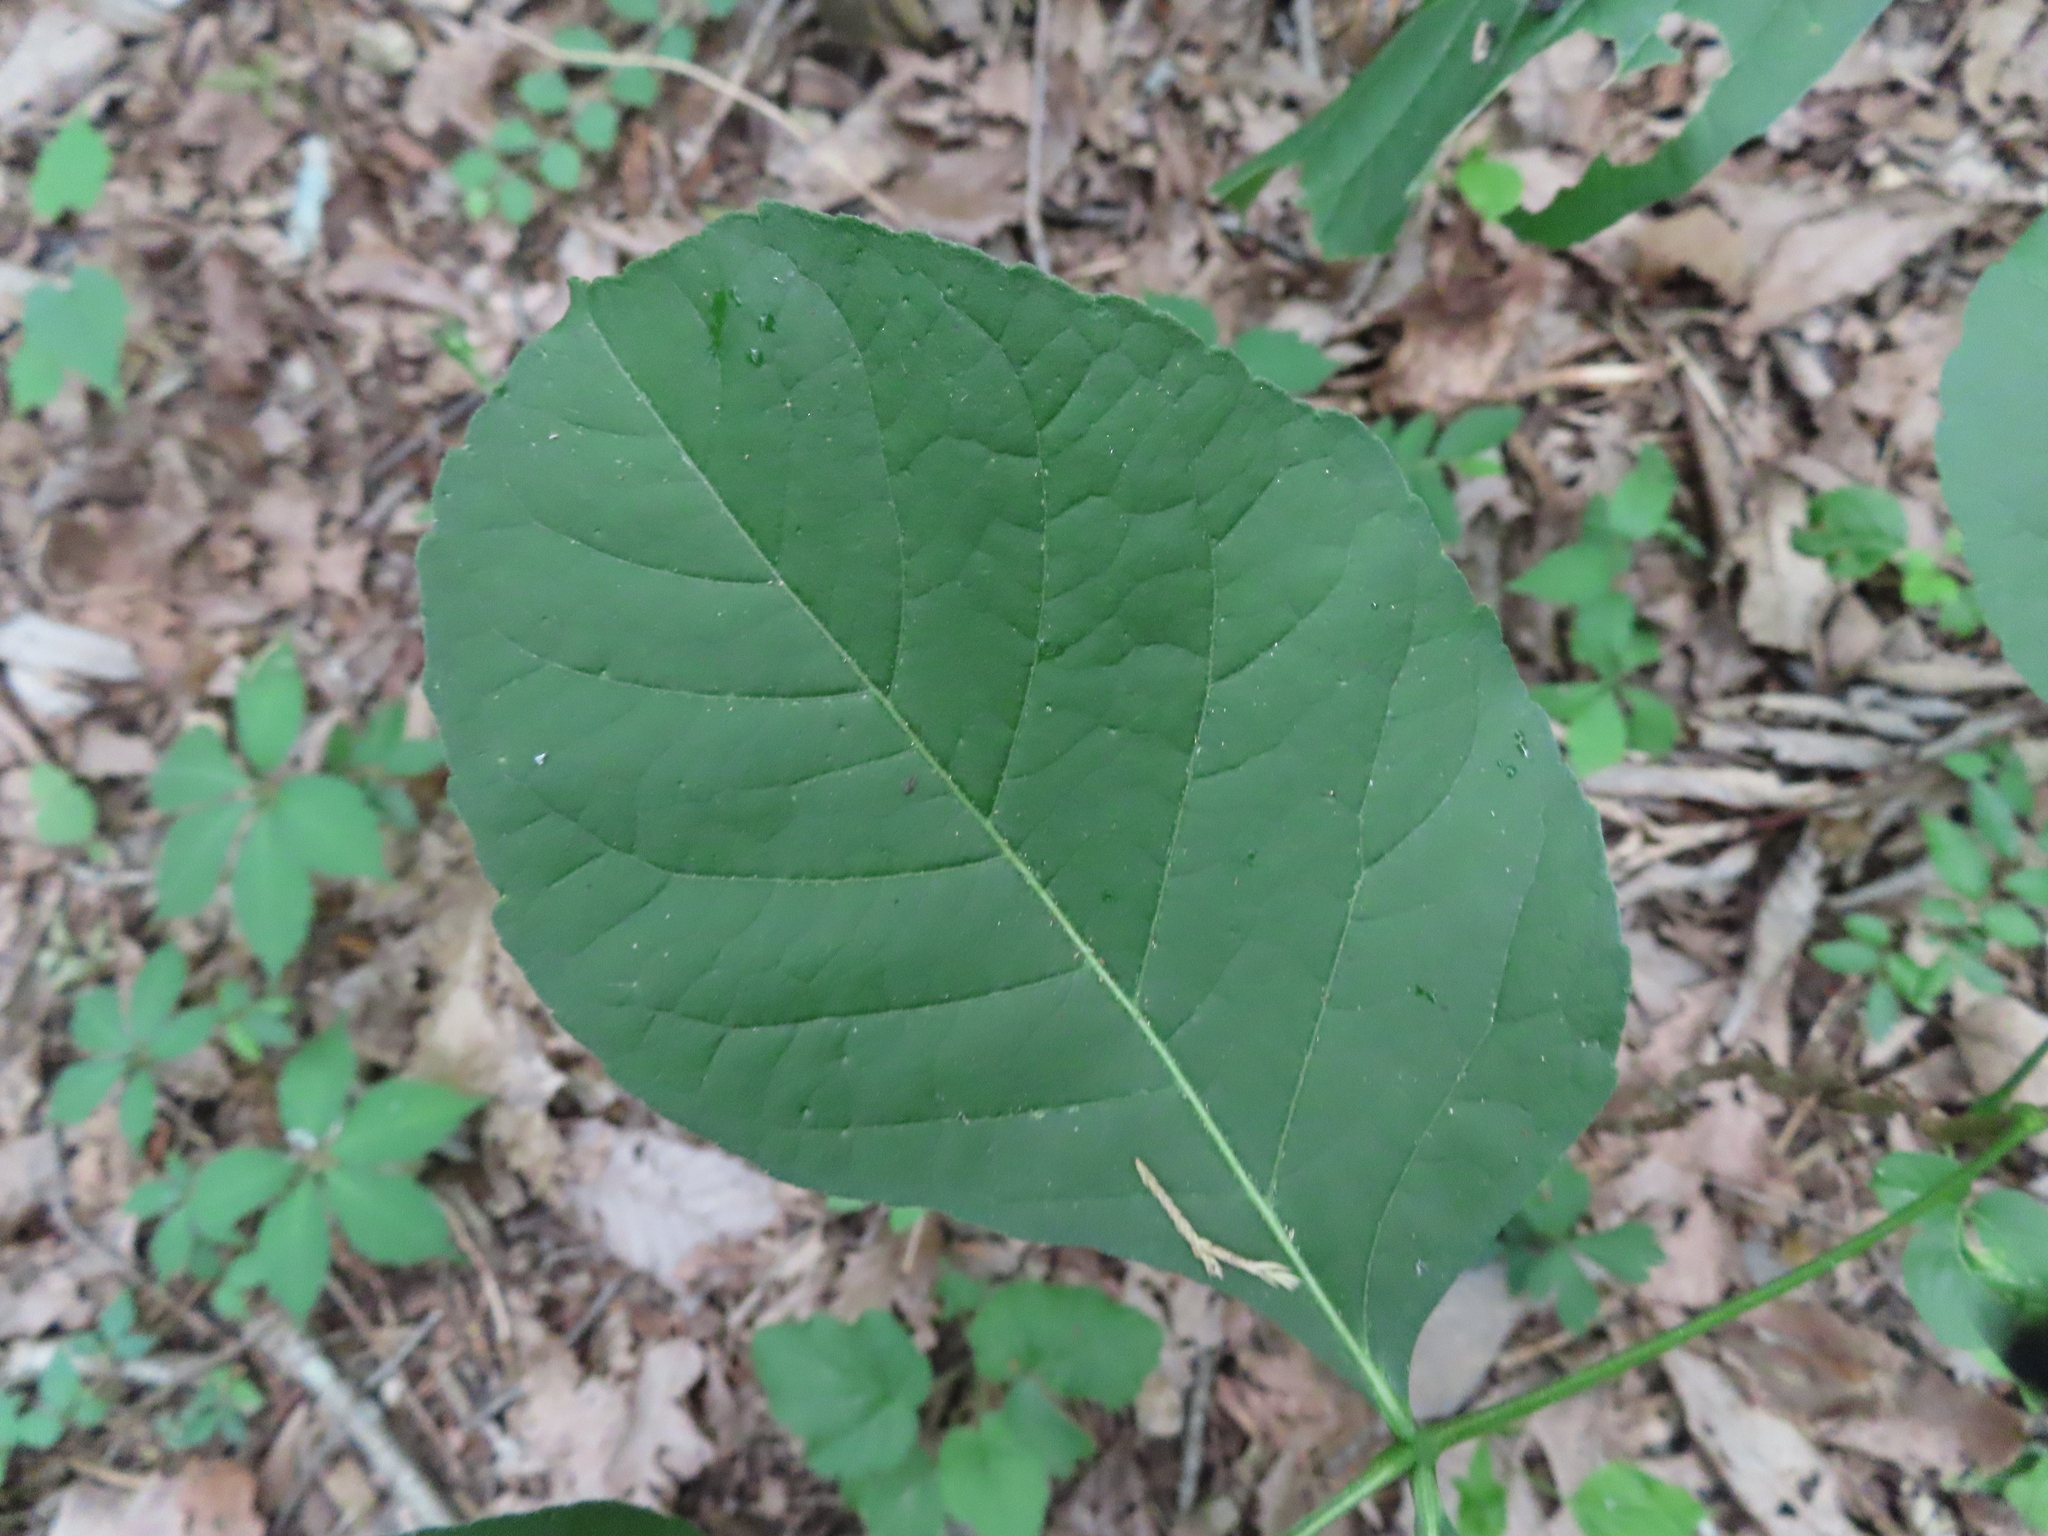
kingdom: Plantae
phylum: Tracheophyta
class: Magnoliopsida
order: Sapindales
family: Rutaceae
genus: Ptelea
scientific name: Ptelea trifoliata
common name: Common hop-tree
